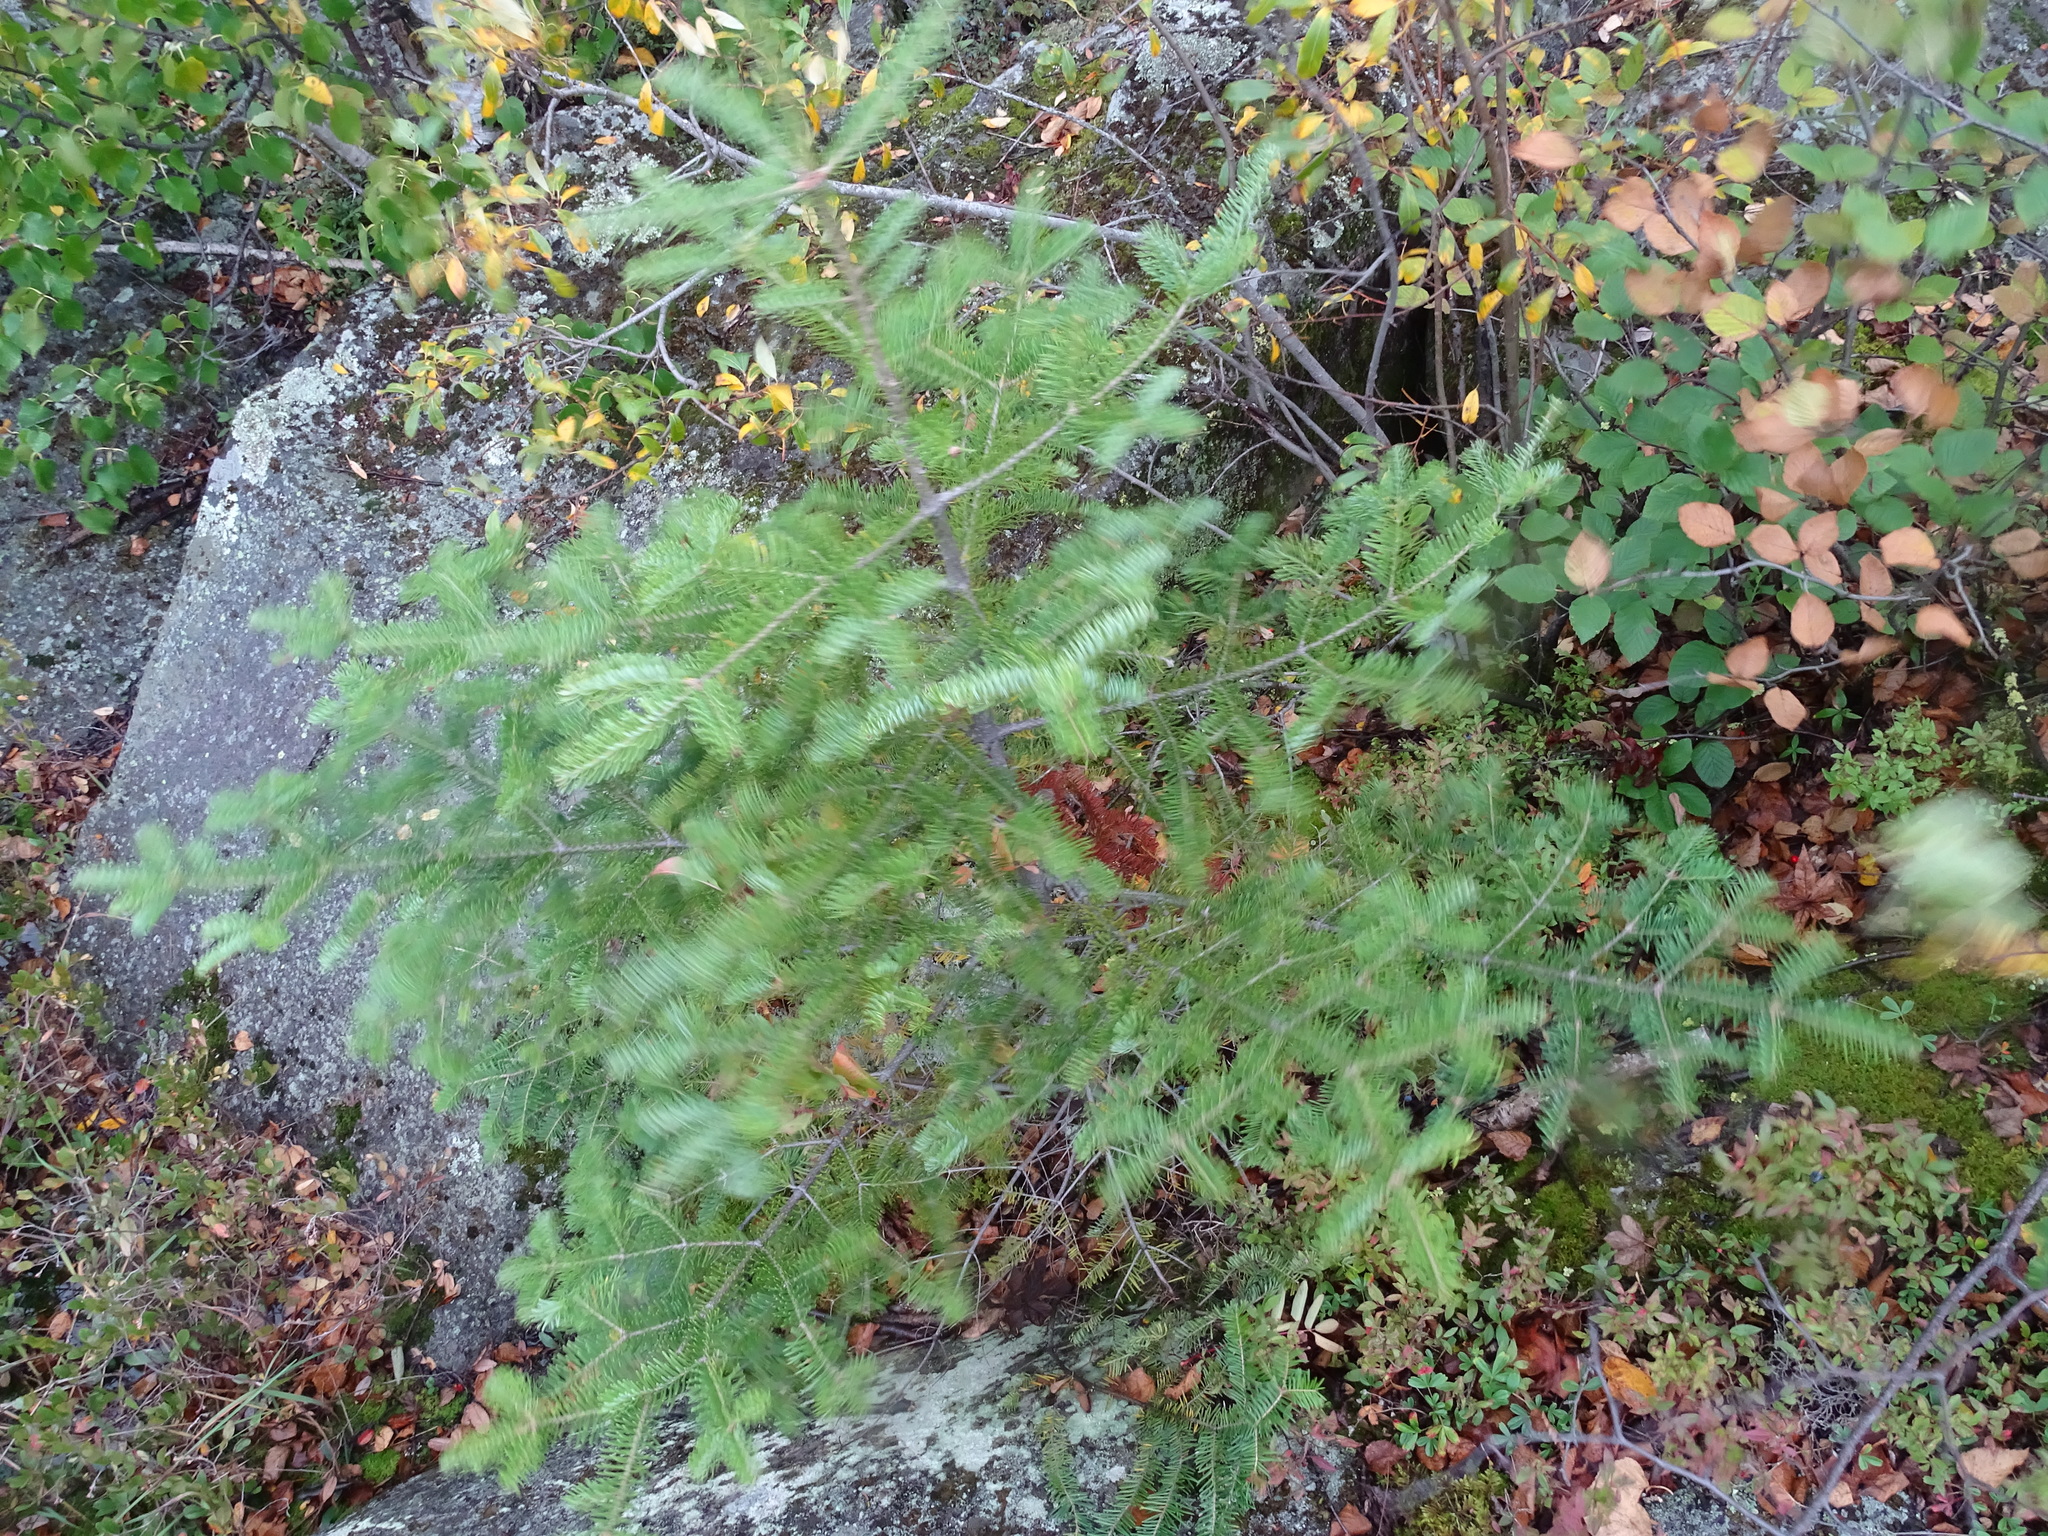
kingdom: Plantae
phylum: Tracheophyta
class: Pinopsida
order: Pinales
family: Pinaceae
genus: Abies
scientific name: Abies balsamea
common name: Balsam fir
